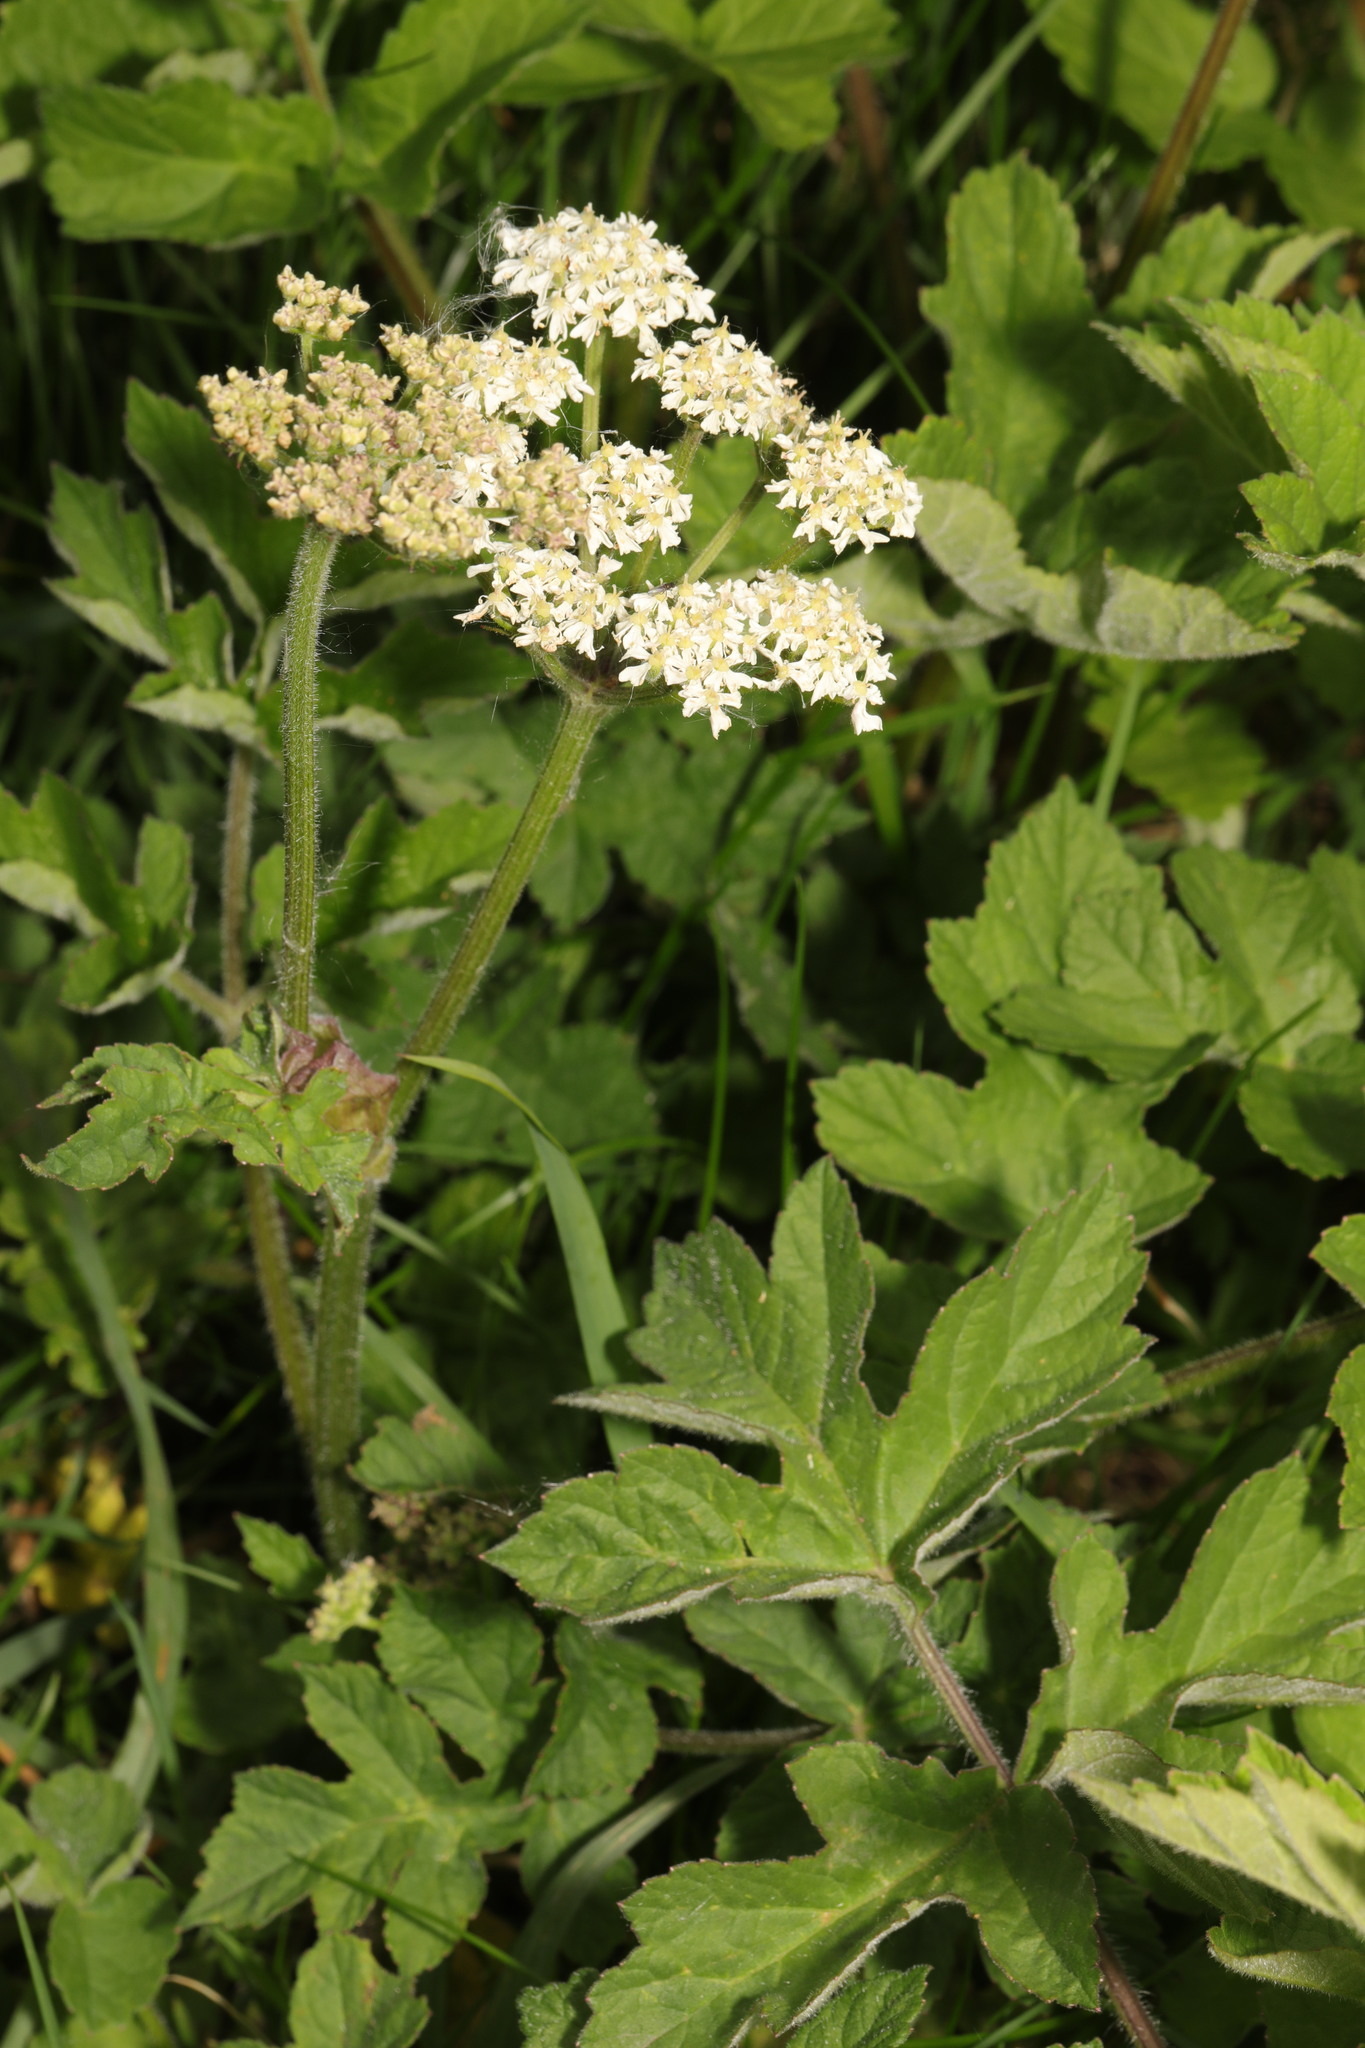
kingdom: Plantae
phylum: Tracheophyta
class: Magnoliopsida
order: Apiales
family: Apiaceae
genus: Heracleum
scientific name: Heracleum sphondylium
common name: Hogweed
